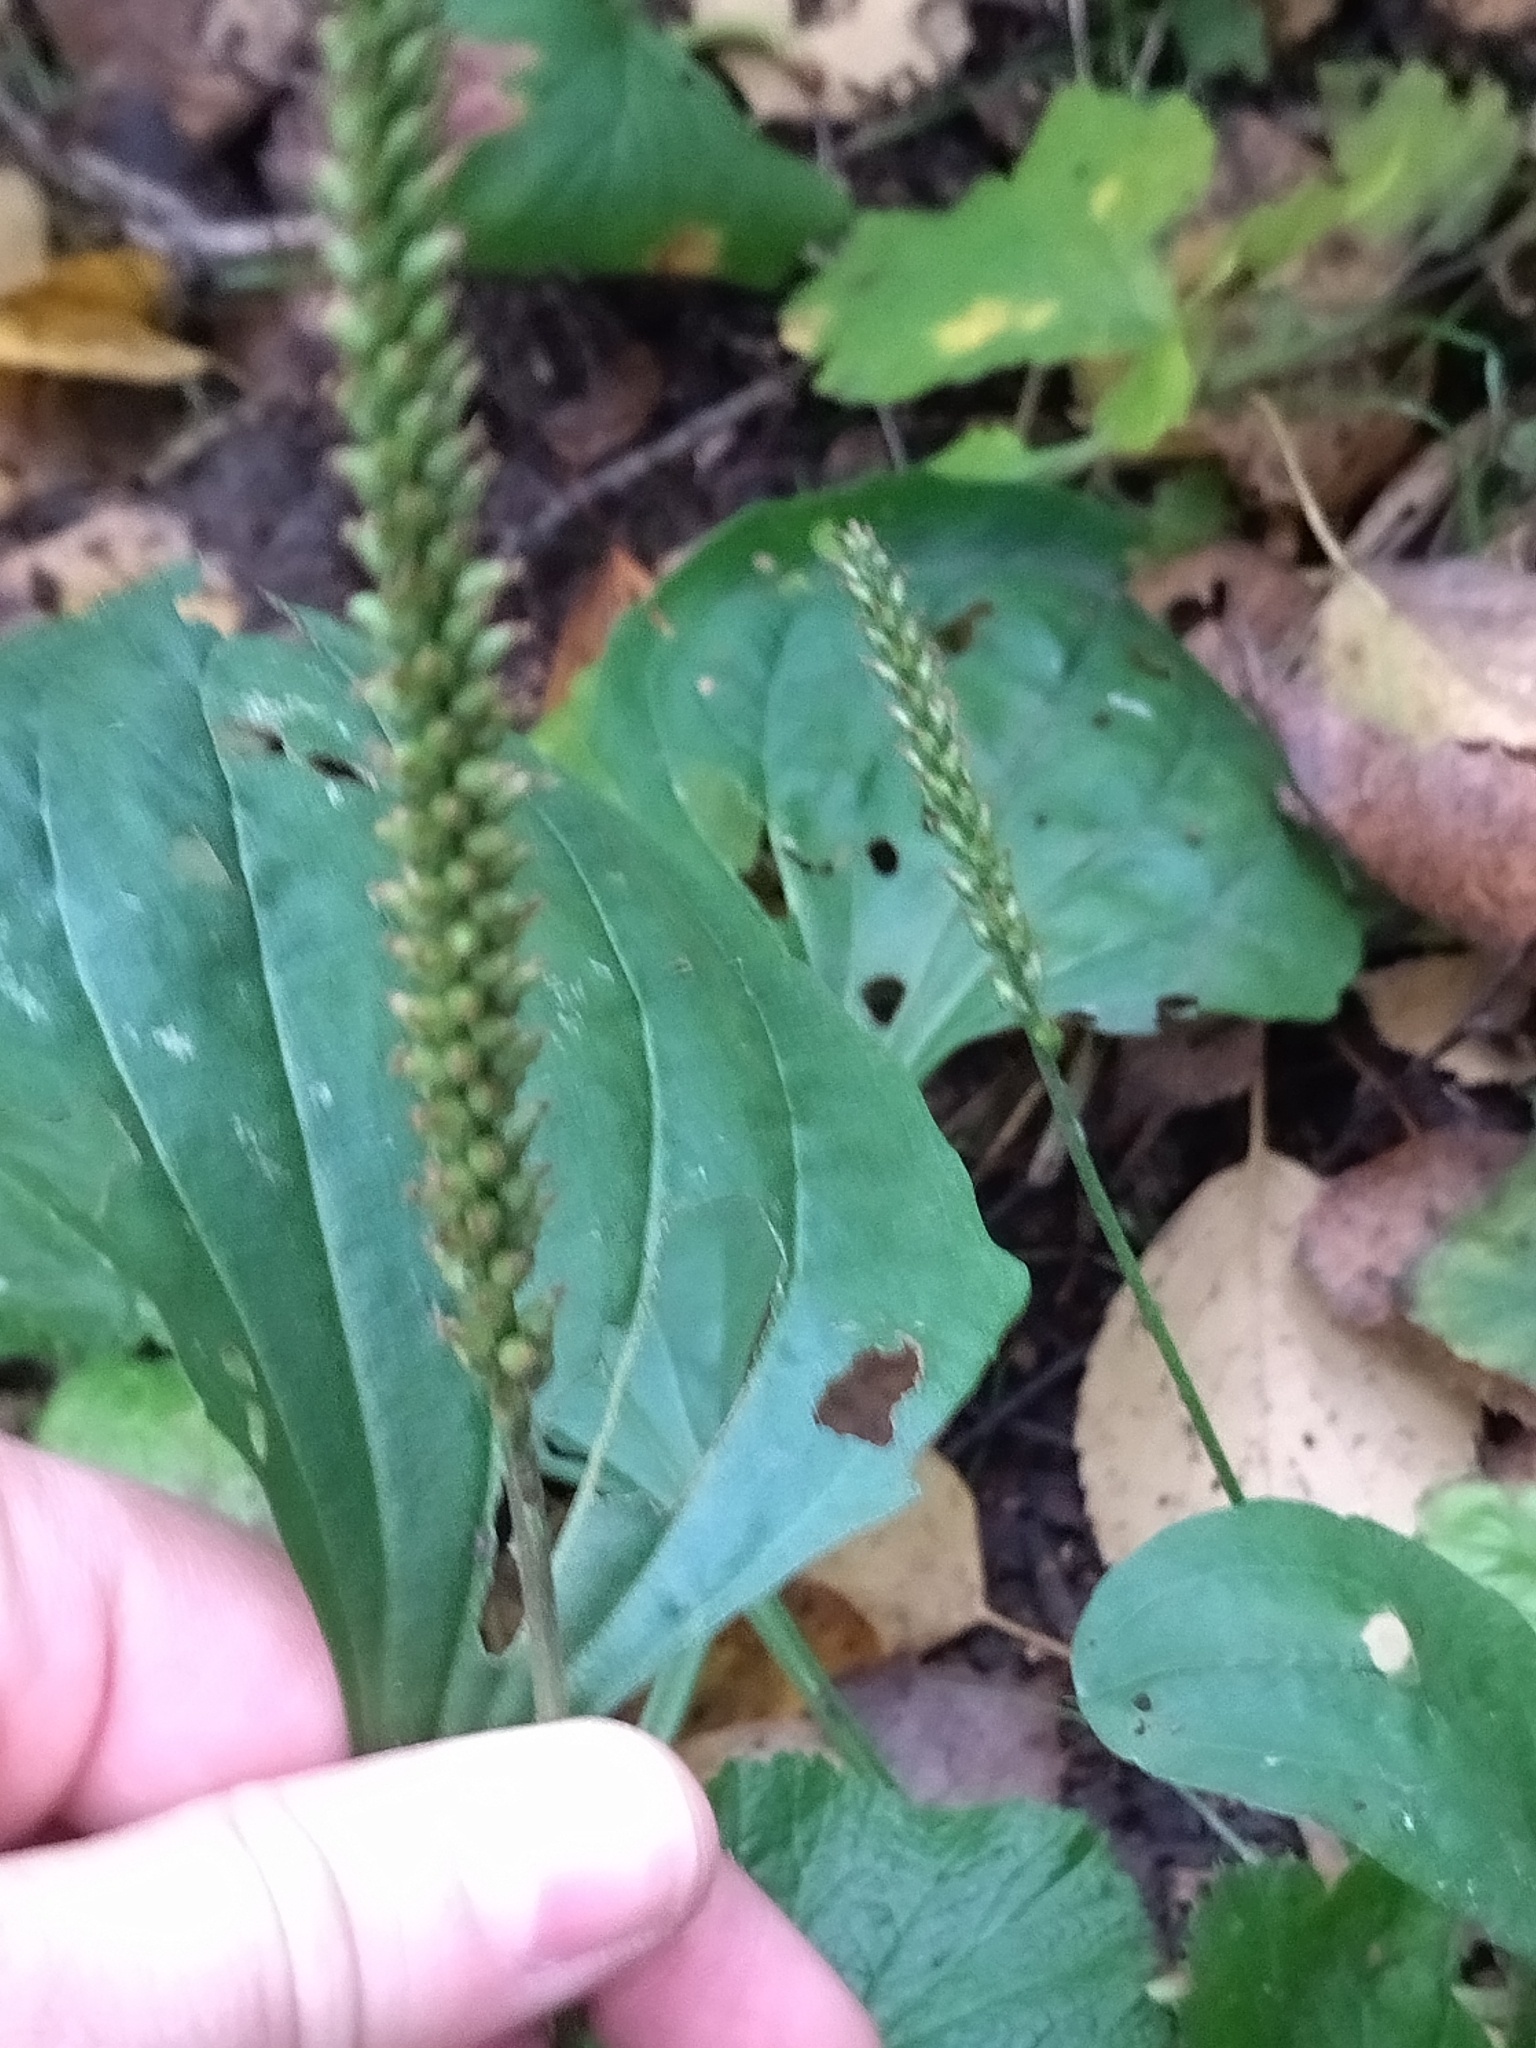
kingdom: Plantae
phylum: Tracheophyta
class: Magnoliopsida
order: Lamiales
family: Plantaginaceae
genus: Plantago
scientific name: Plantago major
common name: Common plantain
